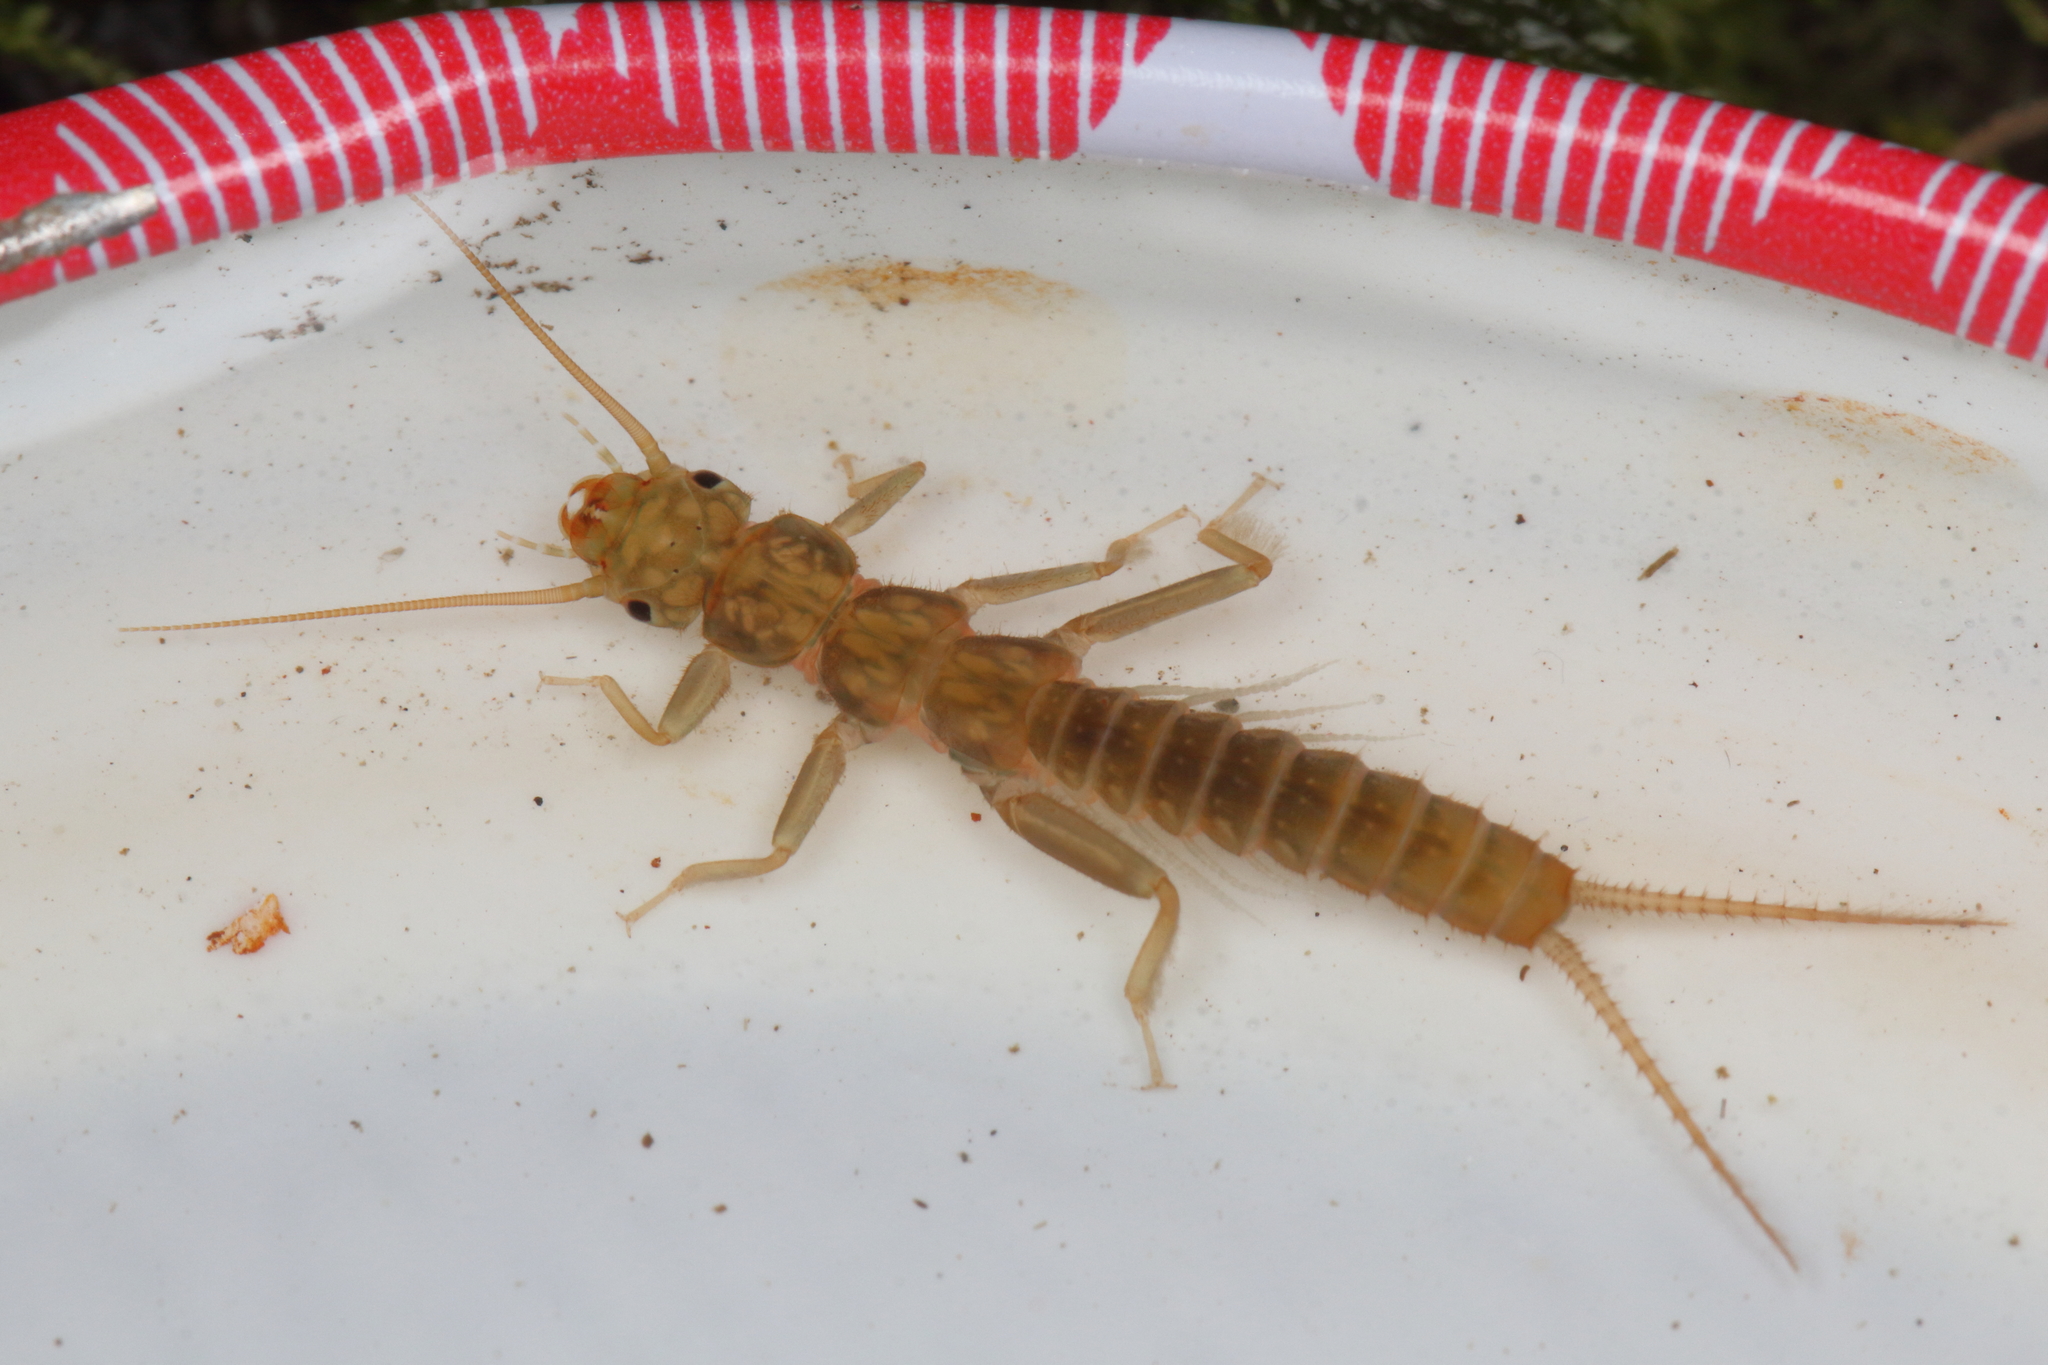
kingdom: Animalia
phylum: Arthropoda
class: Insecta
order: Plecoptera
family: Eustheniidae
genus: Stenoperla
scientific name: Stenoperla prasina
